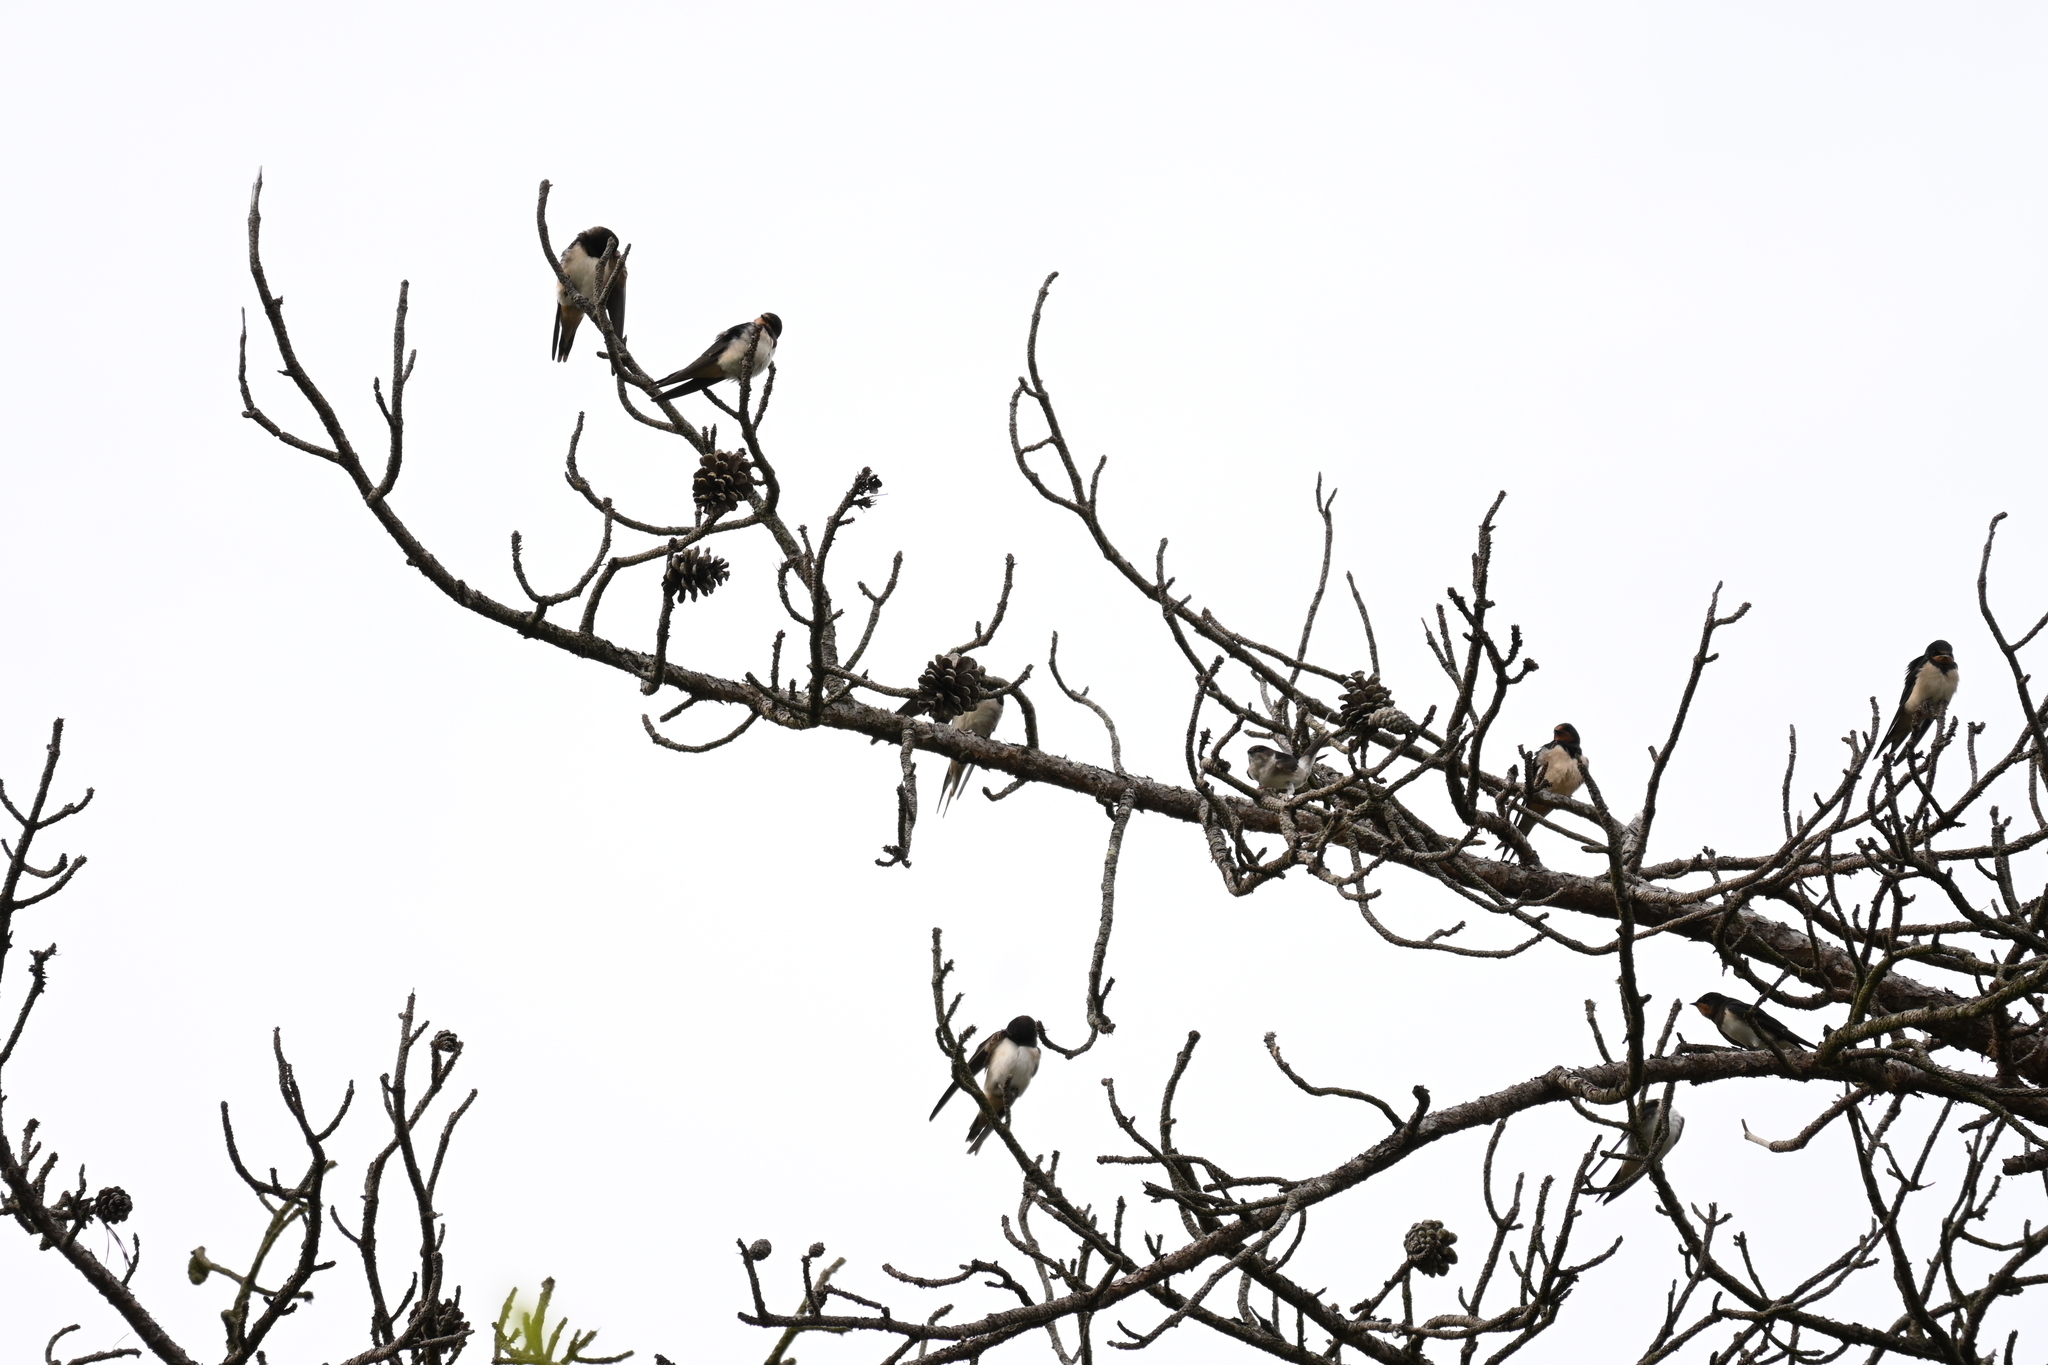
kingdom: Animalia
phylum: Chordata
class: Aves
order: Passeriformes
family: Hirundinidae
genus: Hirundo
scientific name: Hirundo rustica
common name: Barn swallow
